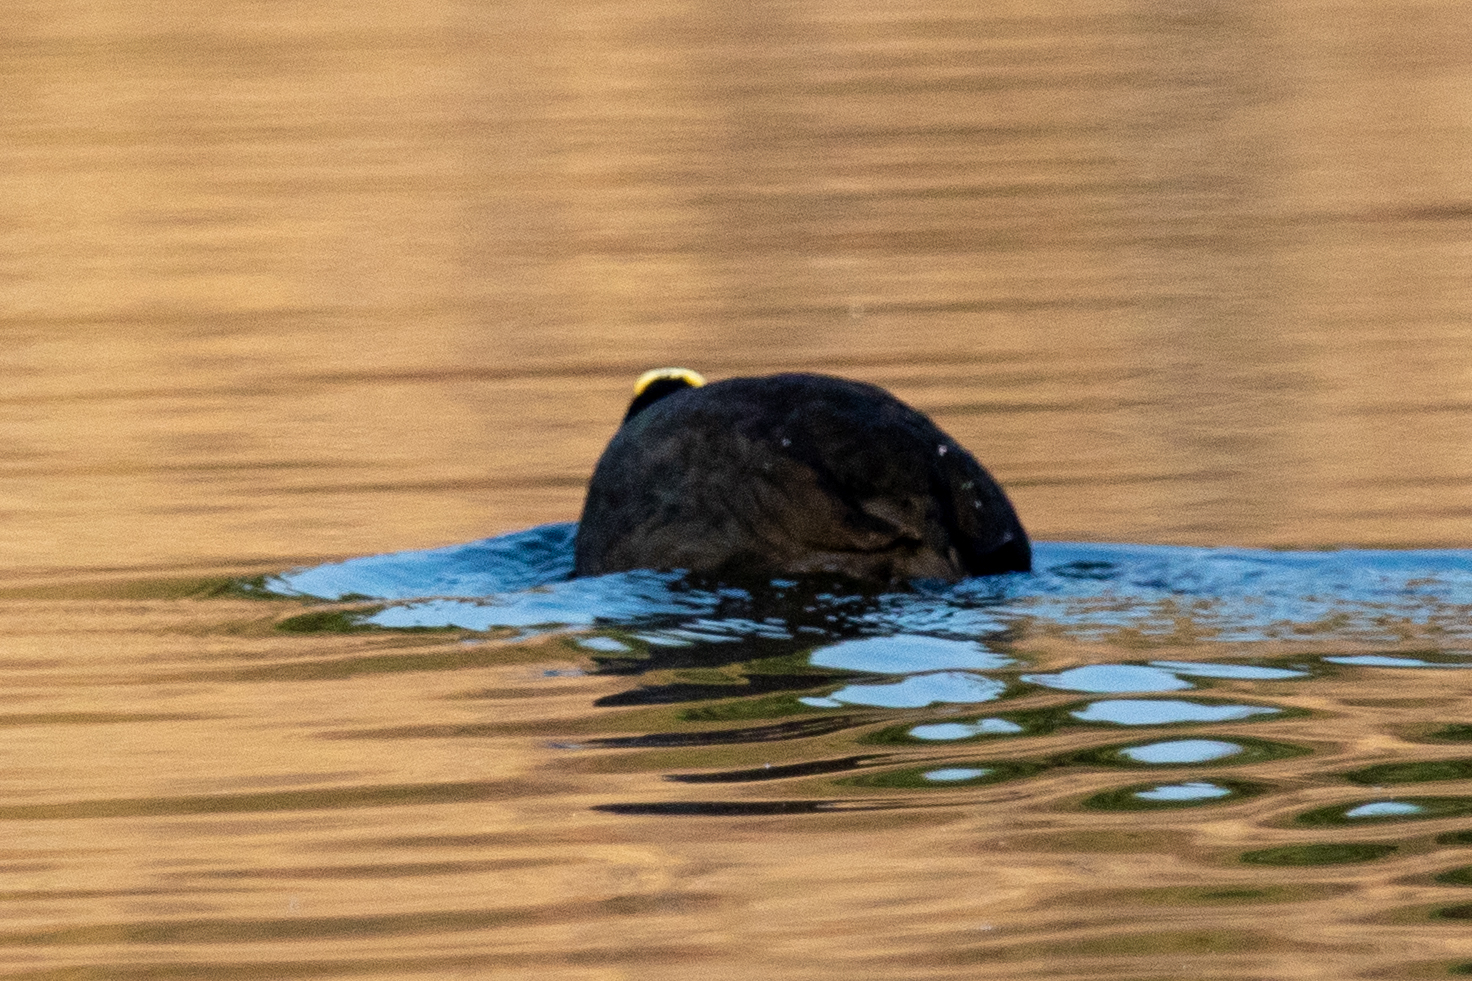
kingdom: Animalia
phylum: Chordata
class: Aves
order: Gruiformes
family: Rallidae
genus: Fulica
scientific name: Fulica atra
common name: Eurasian coot
